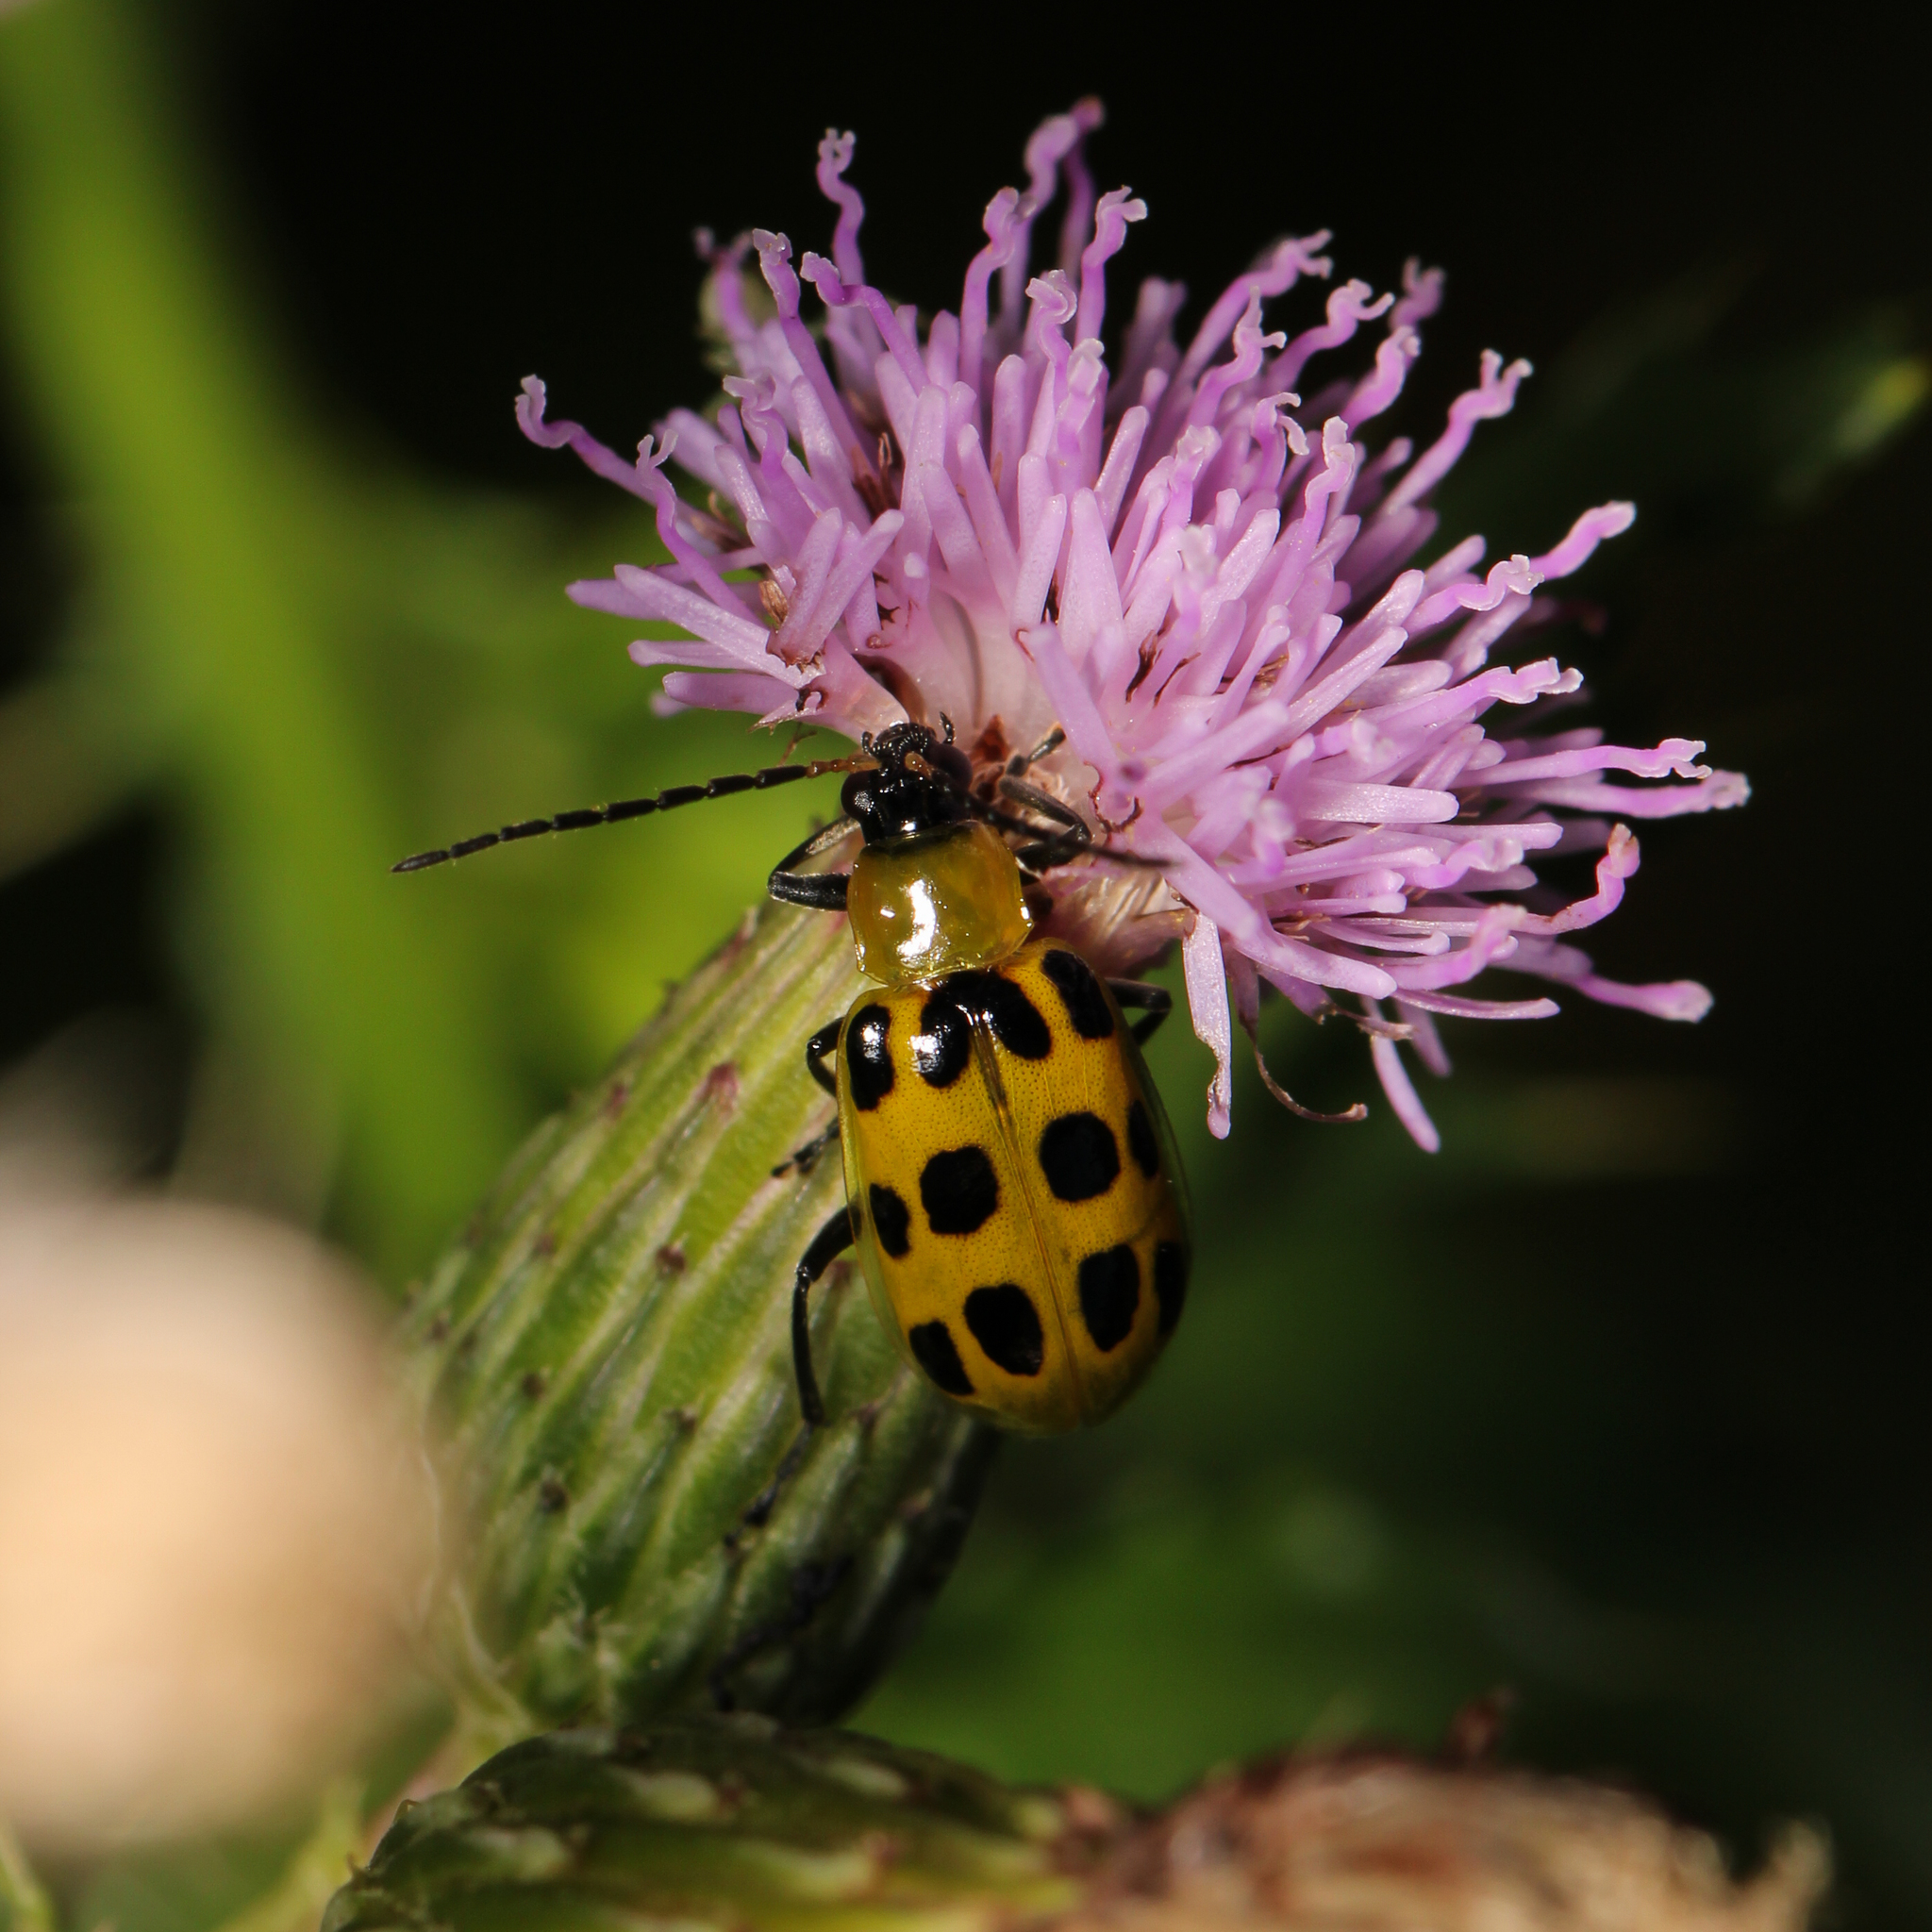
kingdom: Animalia
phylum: Arthropoda
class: Insecta
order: Coleoptera
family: Chrysomelidae
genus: Diabrotica
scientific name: Diabrotica undecimpunctata
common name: Spotted cucumber beetle
